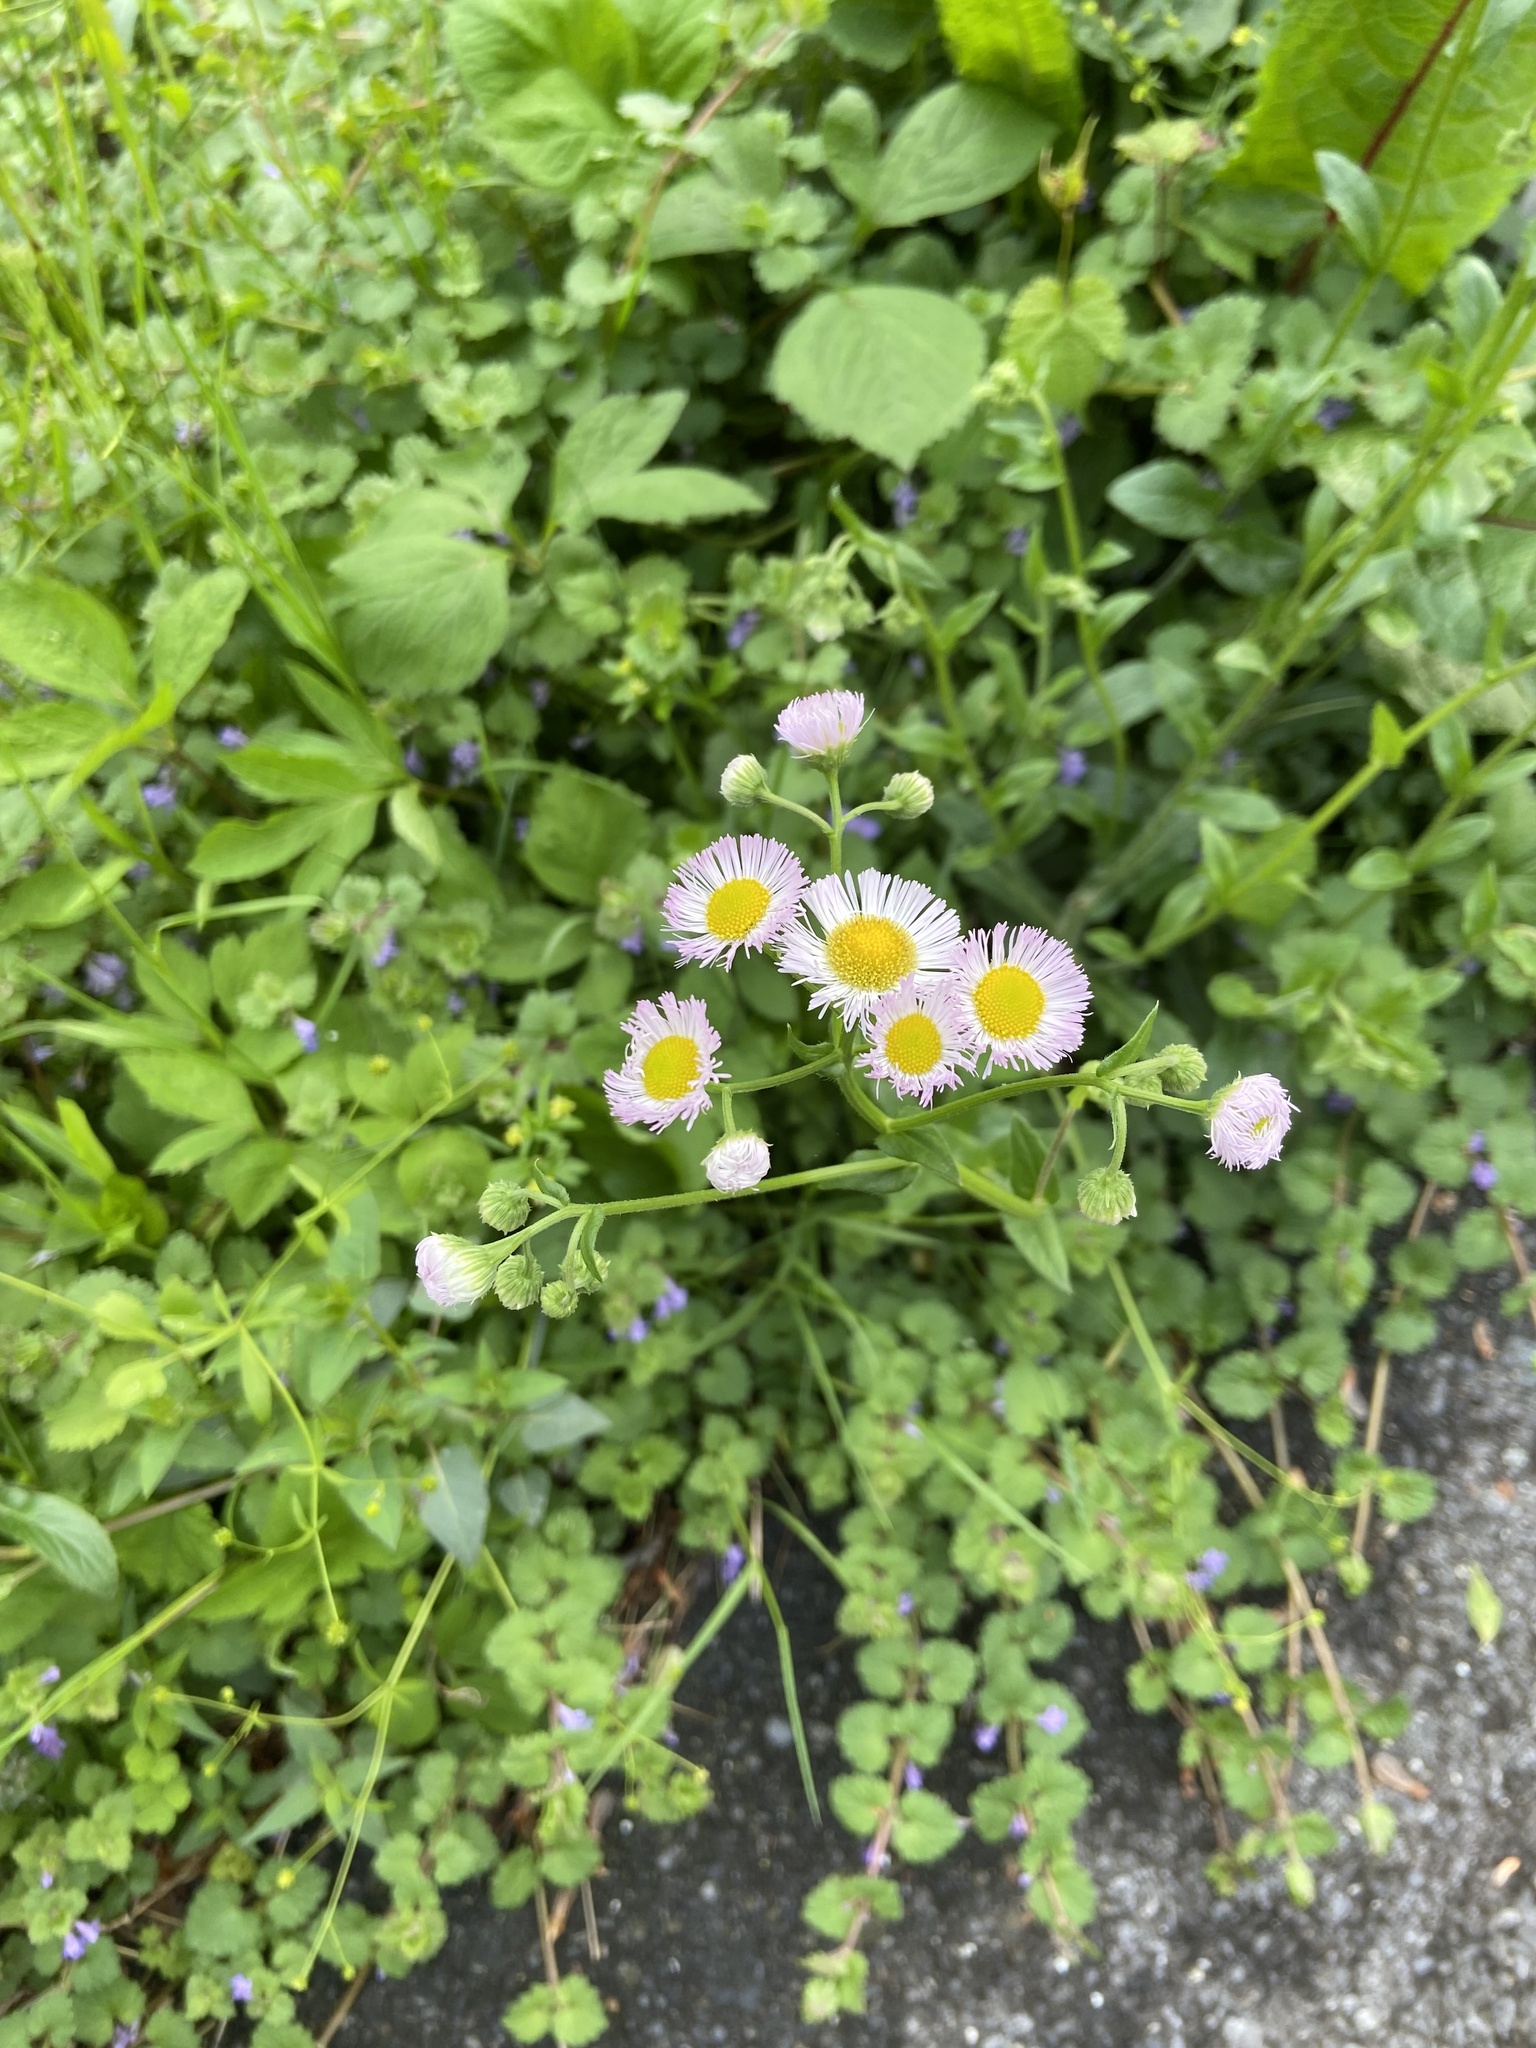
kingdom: Plantae
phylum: Tracheophyta
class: Magnoliopsida
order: Asterales
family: Asteraceae
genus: Erigeron
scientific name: Erigeron philadelphicus
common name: Robin's-plantain
